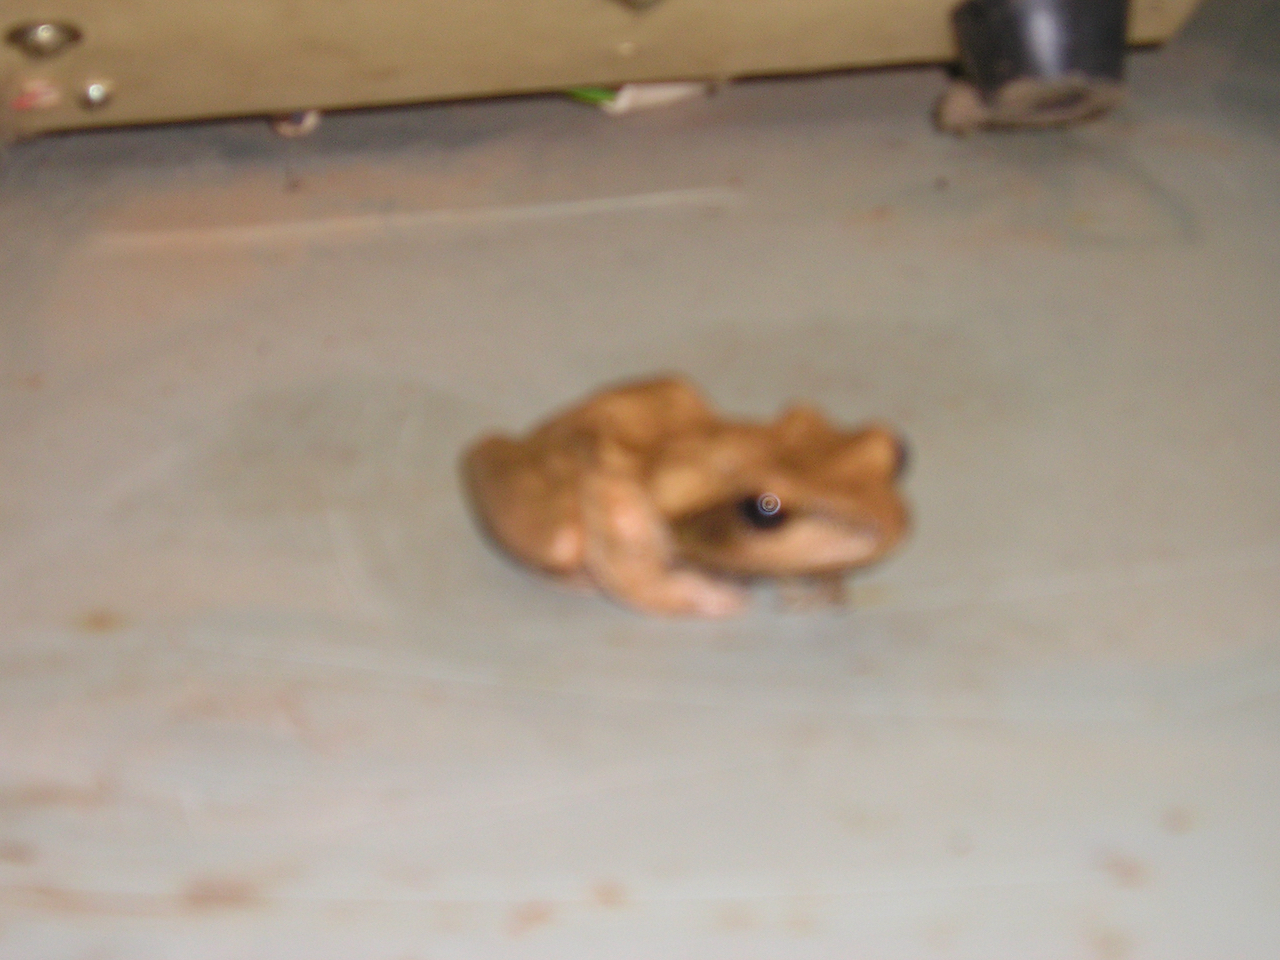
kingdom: Animalia
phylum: Chordata
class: Amphibia
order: Anura
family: Rhacophoridae
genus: Polypedates
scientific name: Polypedates maculatus
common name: Himalayan tree frog
